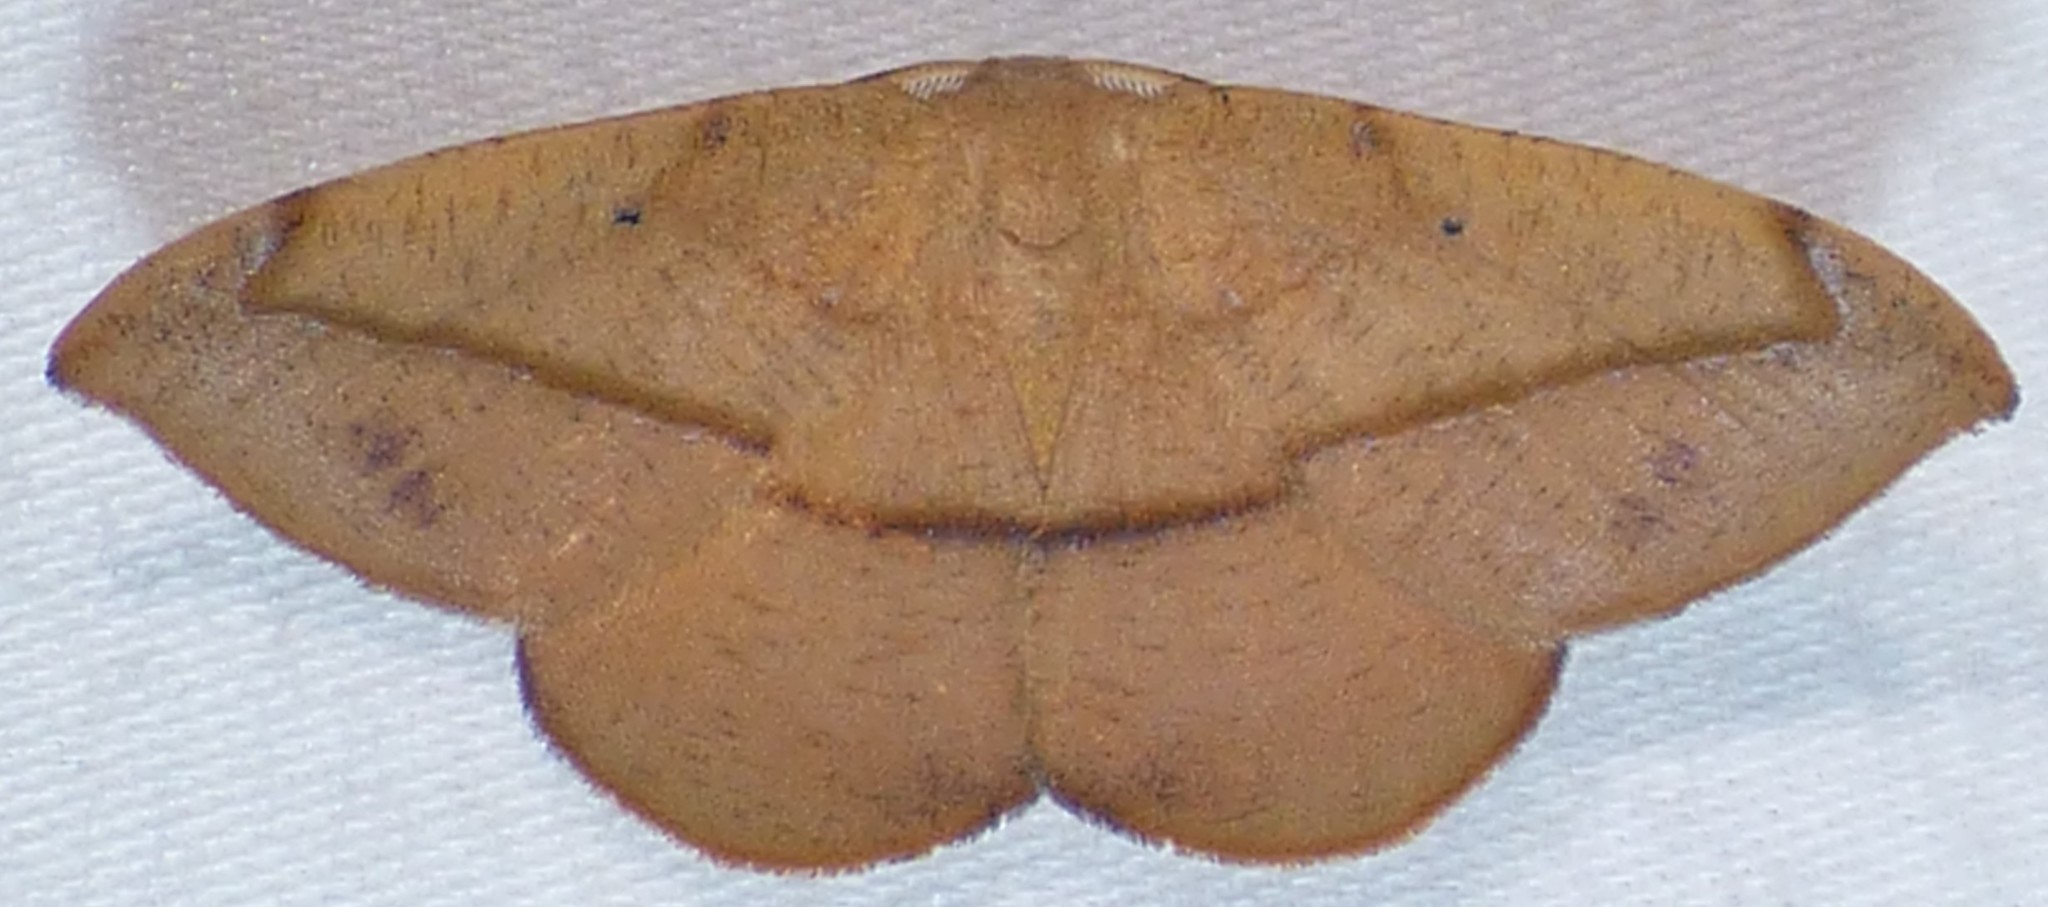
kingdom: Animalia
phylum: Arthropoda
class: Insecta
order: Lepidoptera
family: Geometridae
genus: Patalene
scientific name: Patalene olyzonaria
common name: Juniper geometer moth
